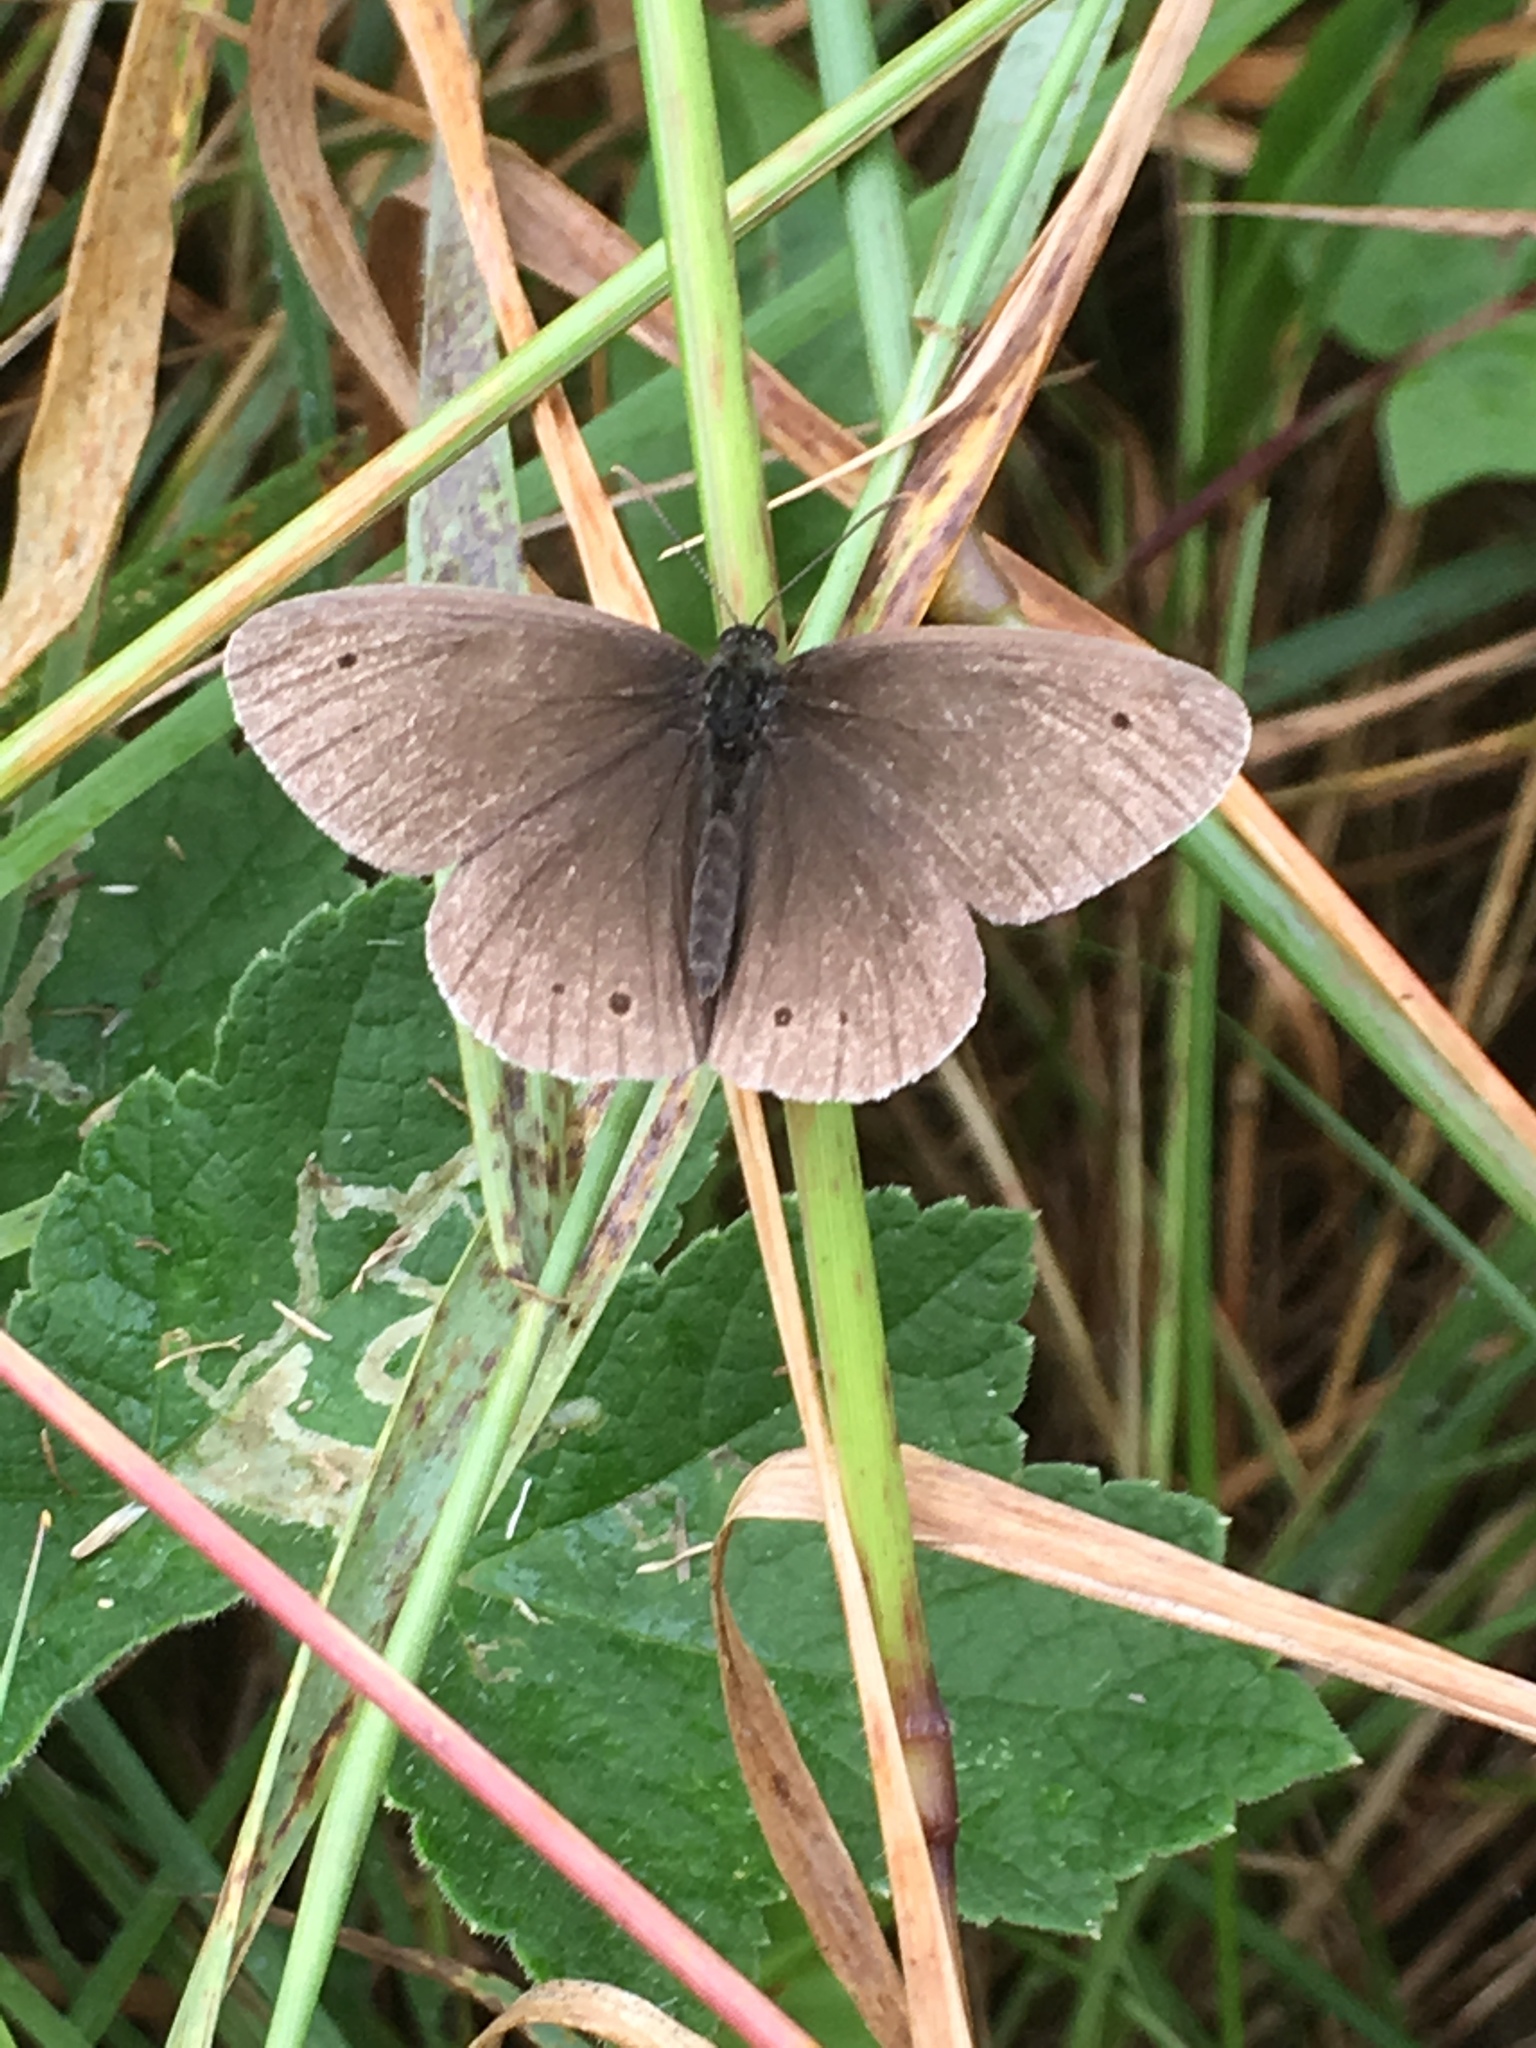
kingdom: Animalia
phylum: Arthropoda
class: Insecta
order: Lepidoptera
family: Nymphalidae
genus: Aphantopus
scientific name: Aphantopus hyperantus
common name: Ringlet
